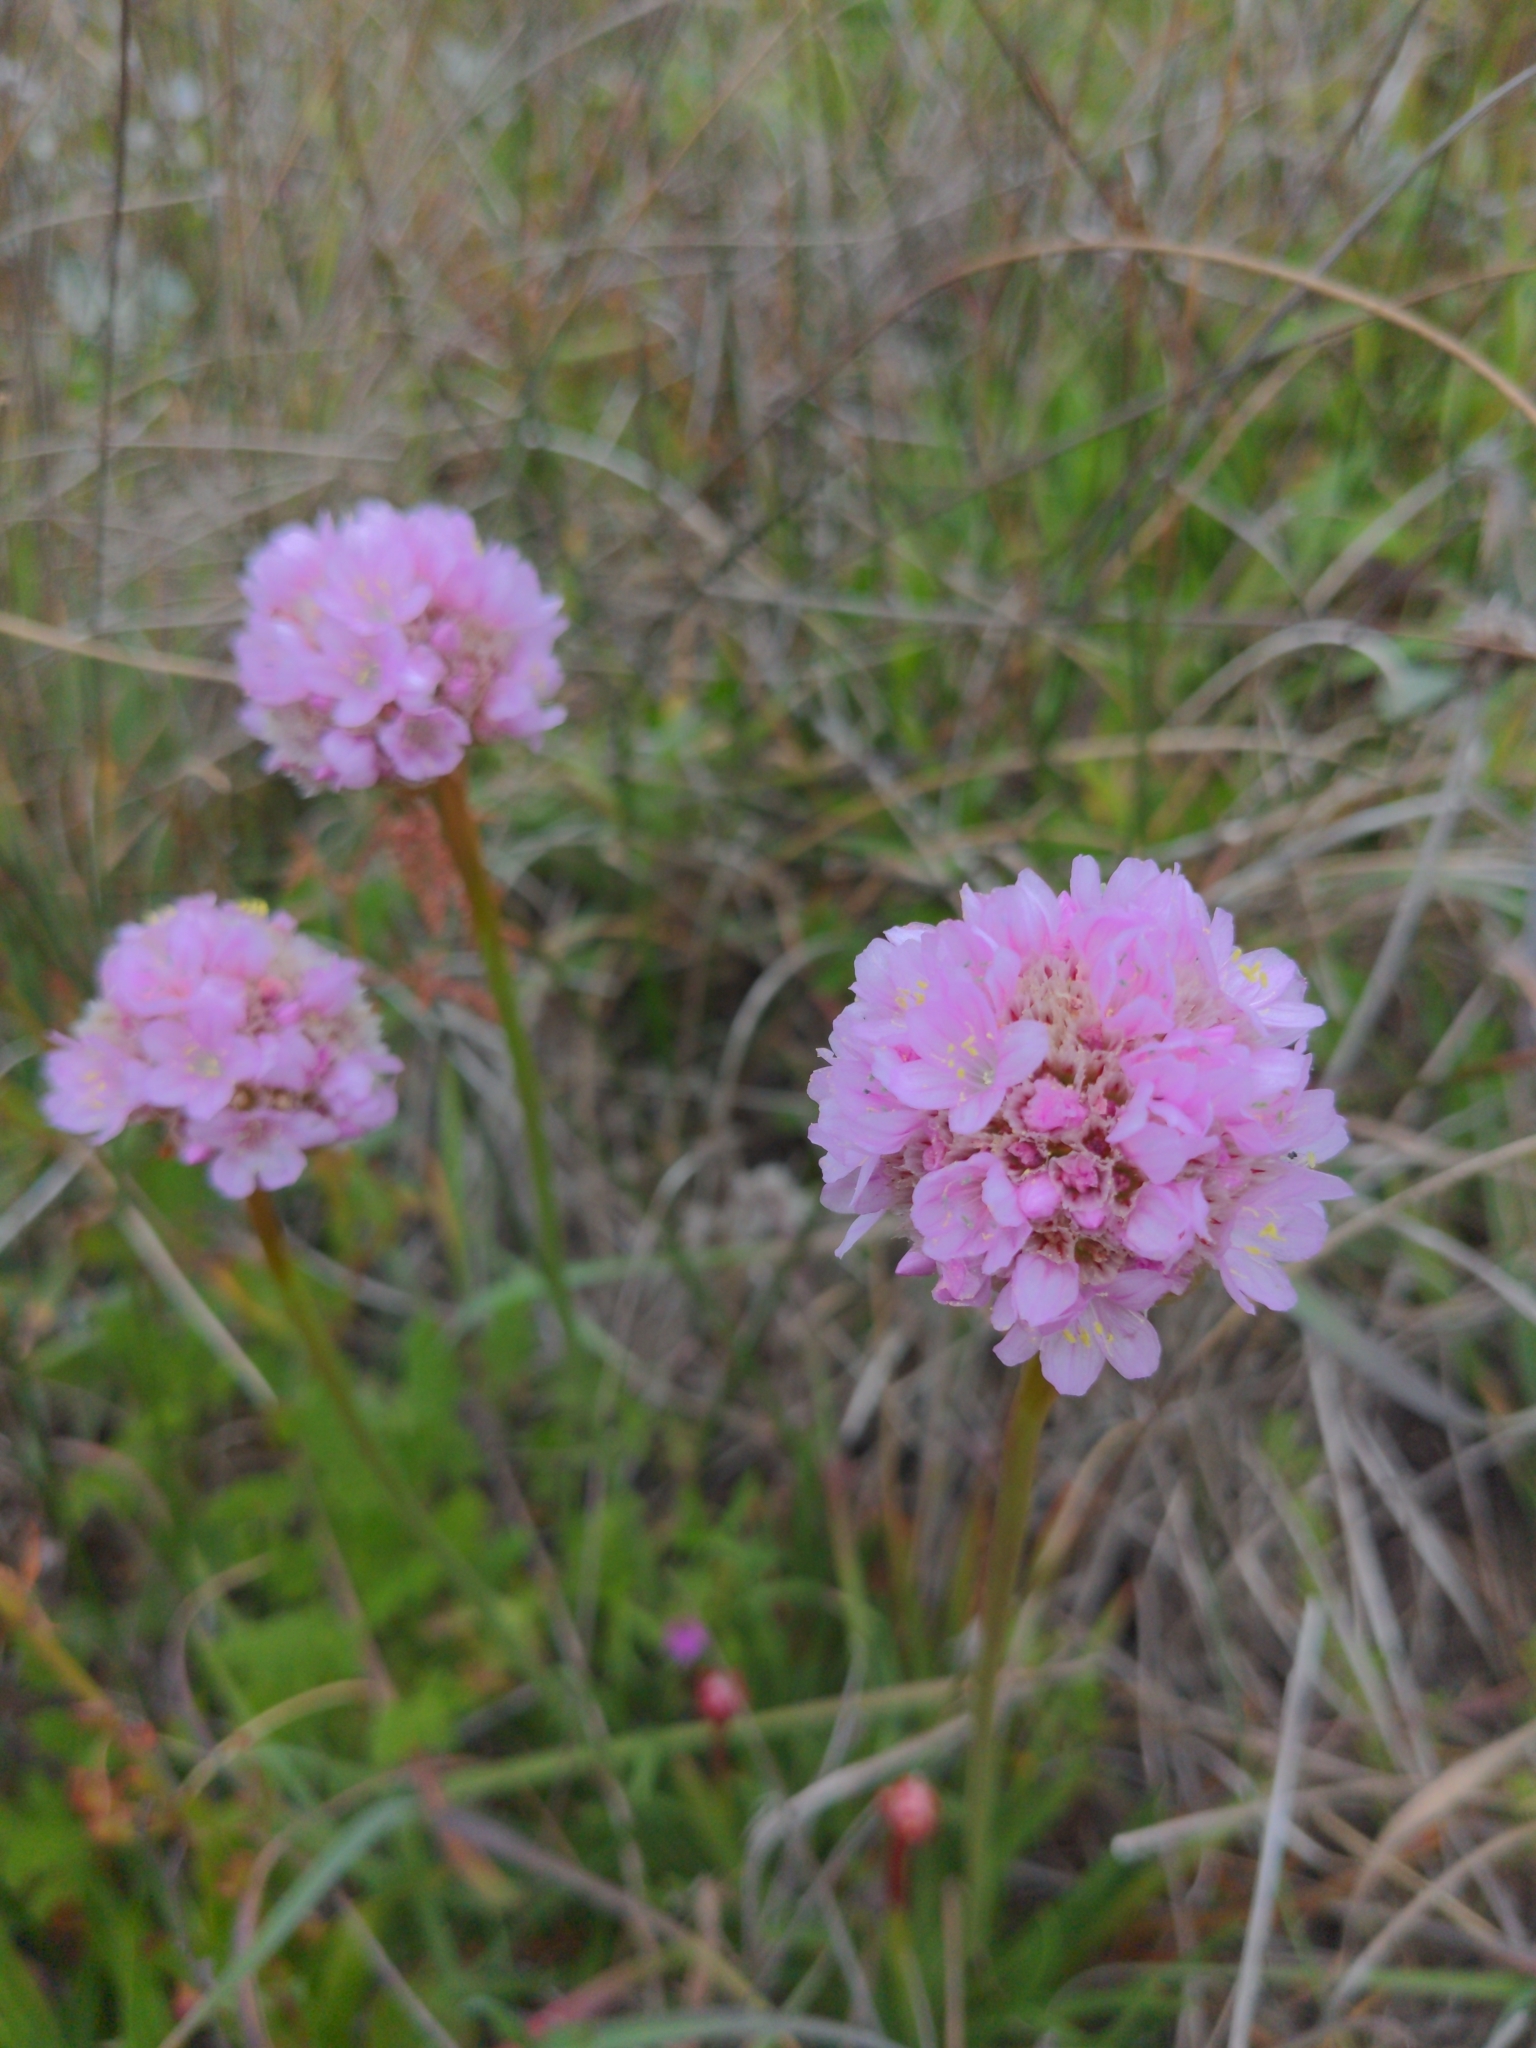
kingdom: Plantae
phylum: Tracheophyta
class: Magnoliopsida
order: Caryophyllales
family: Plumbaginaceae
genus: Armeria
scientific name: Armeria maritima
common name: Thrift
